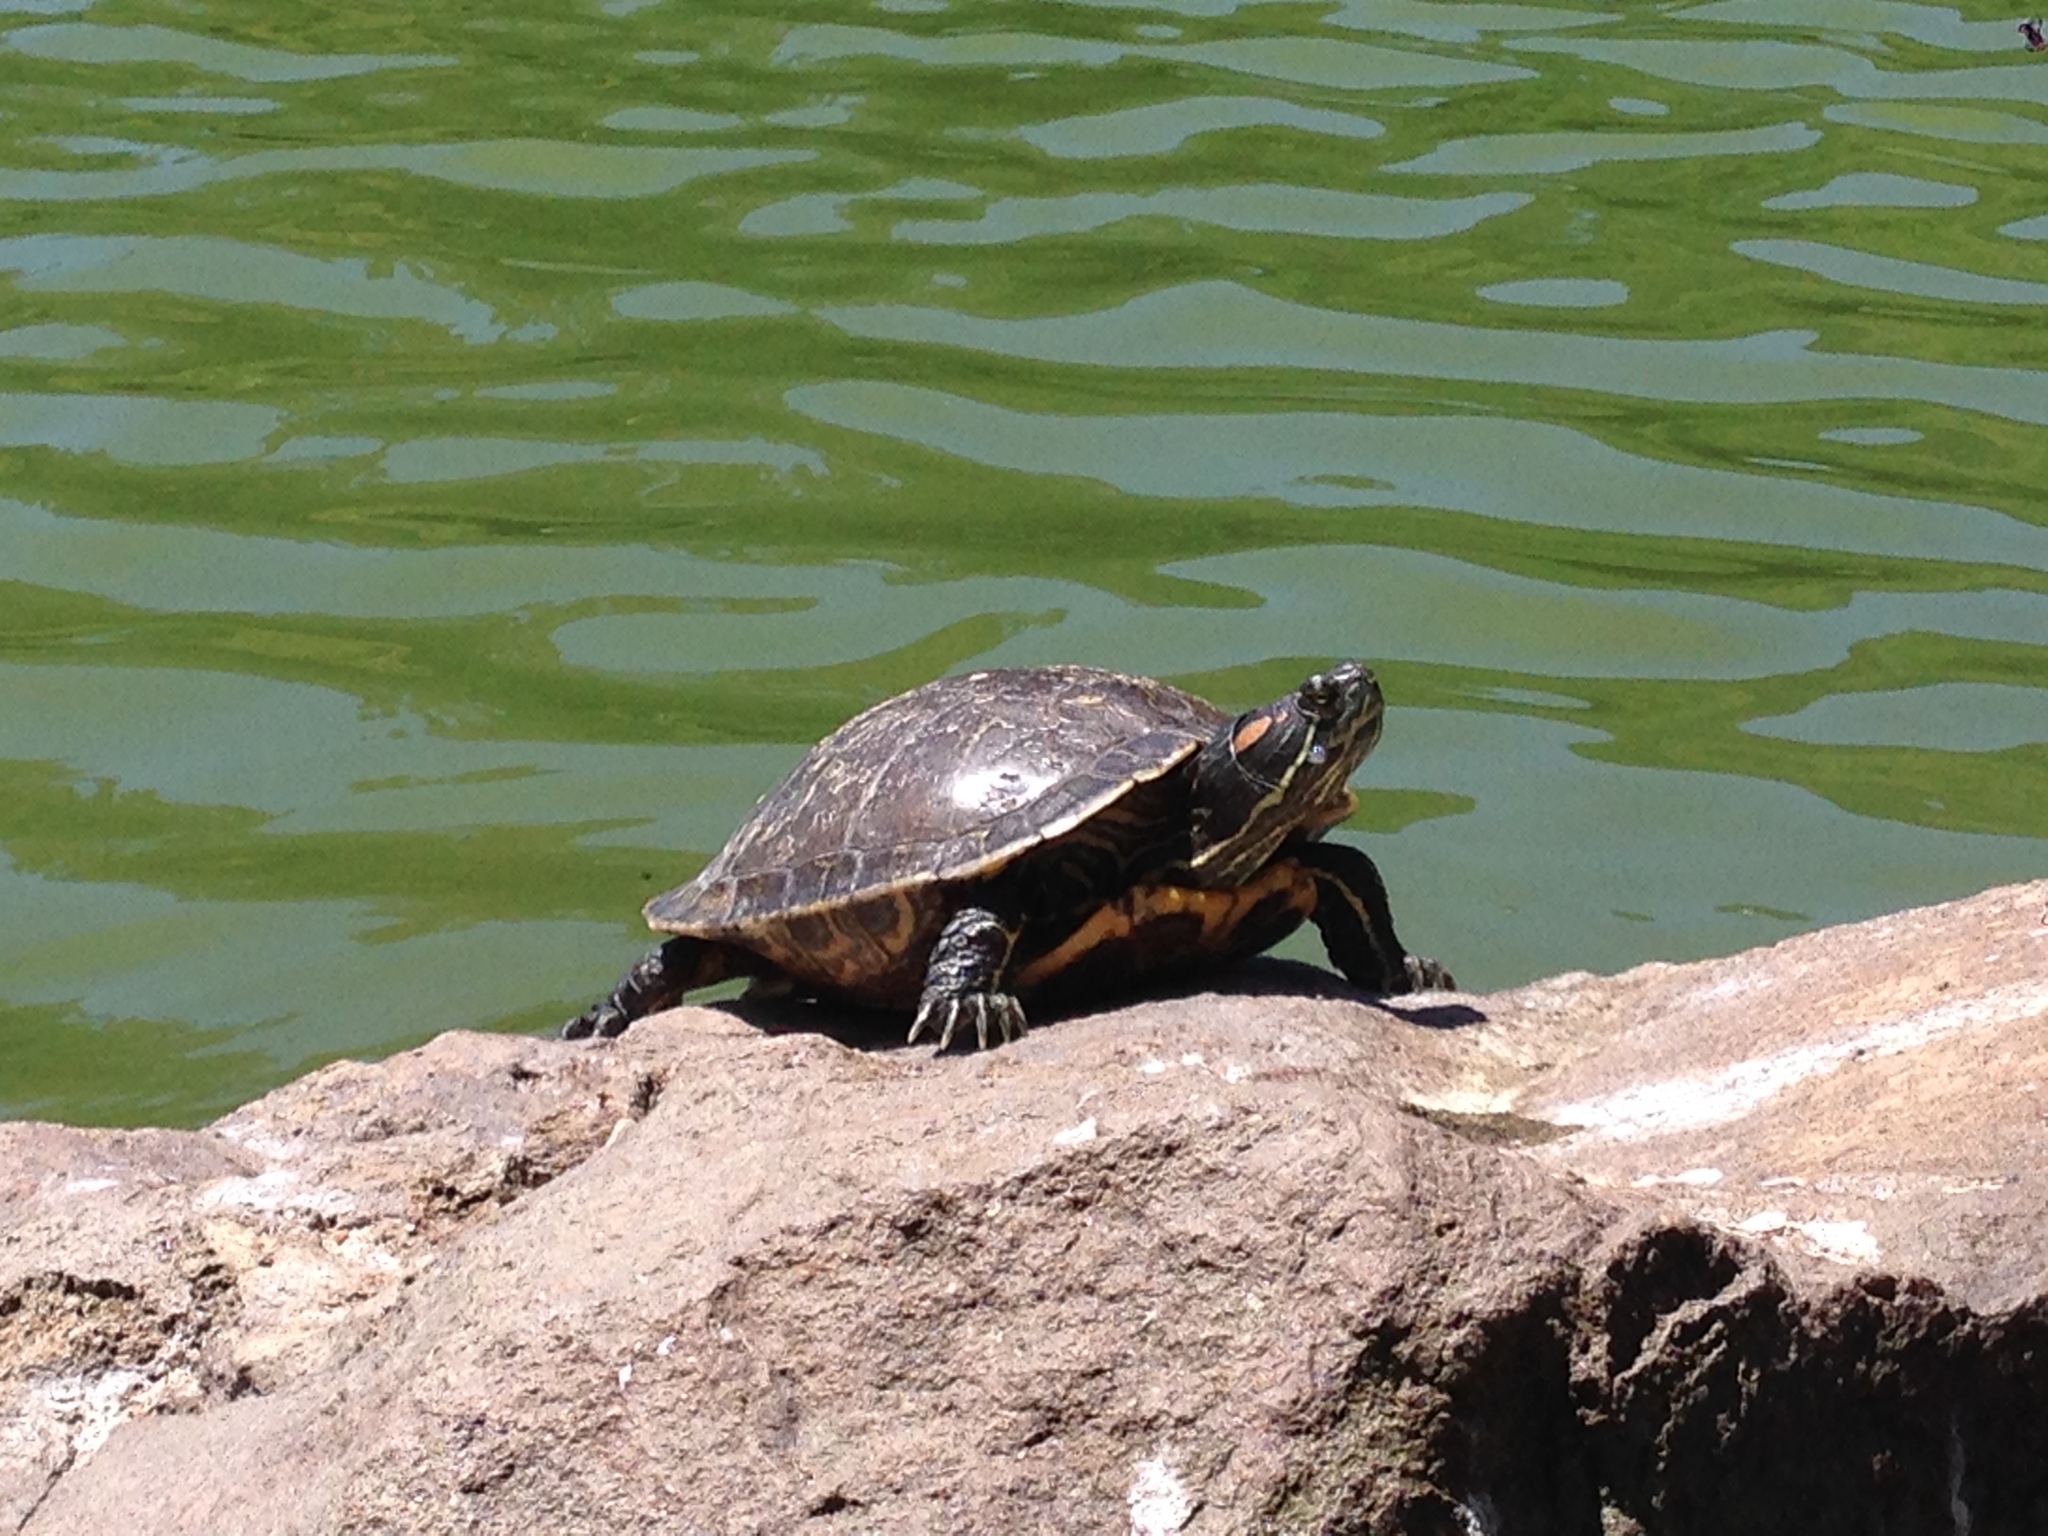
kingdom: Animalia
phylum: Chordata
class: Testudines
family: Emydidae
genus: Trachemys
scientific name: Trachemys scripta
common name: Slider
